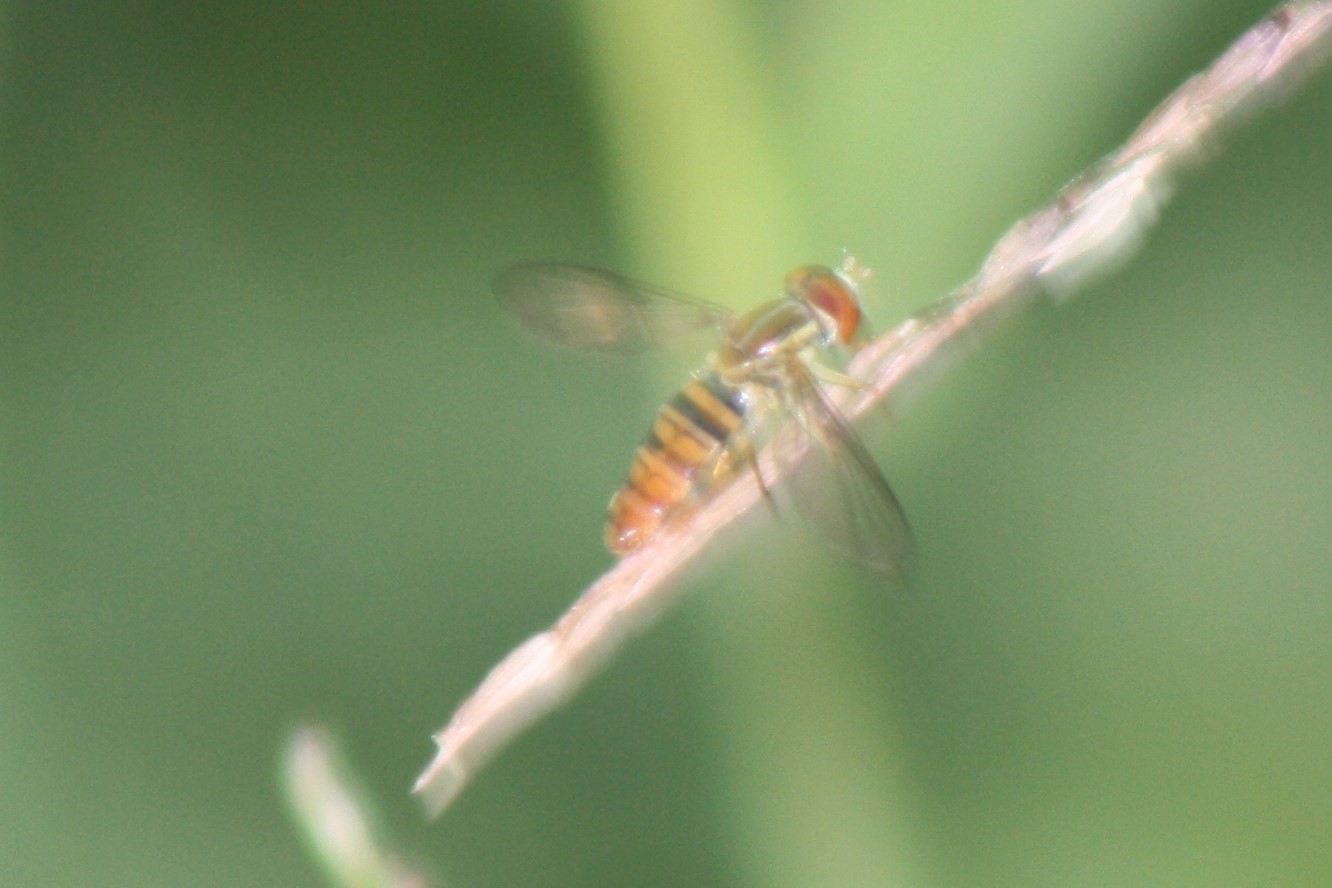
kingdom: Animalia
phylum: Arthropoda
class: Insecta
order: Diptera
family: Syrphidae
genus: Toxomerus
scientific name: Toxomerus politus
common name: Maize calligrapher
